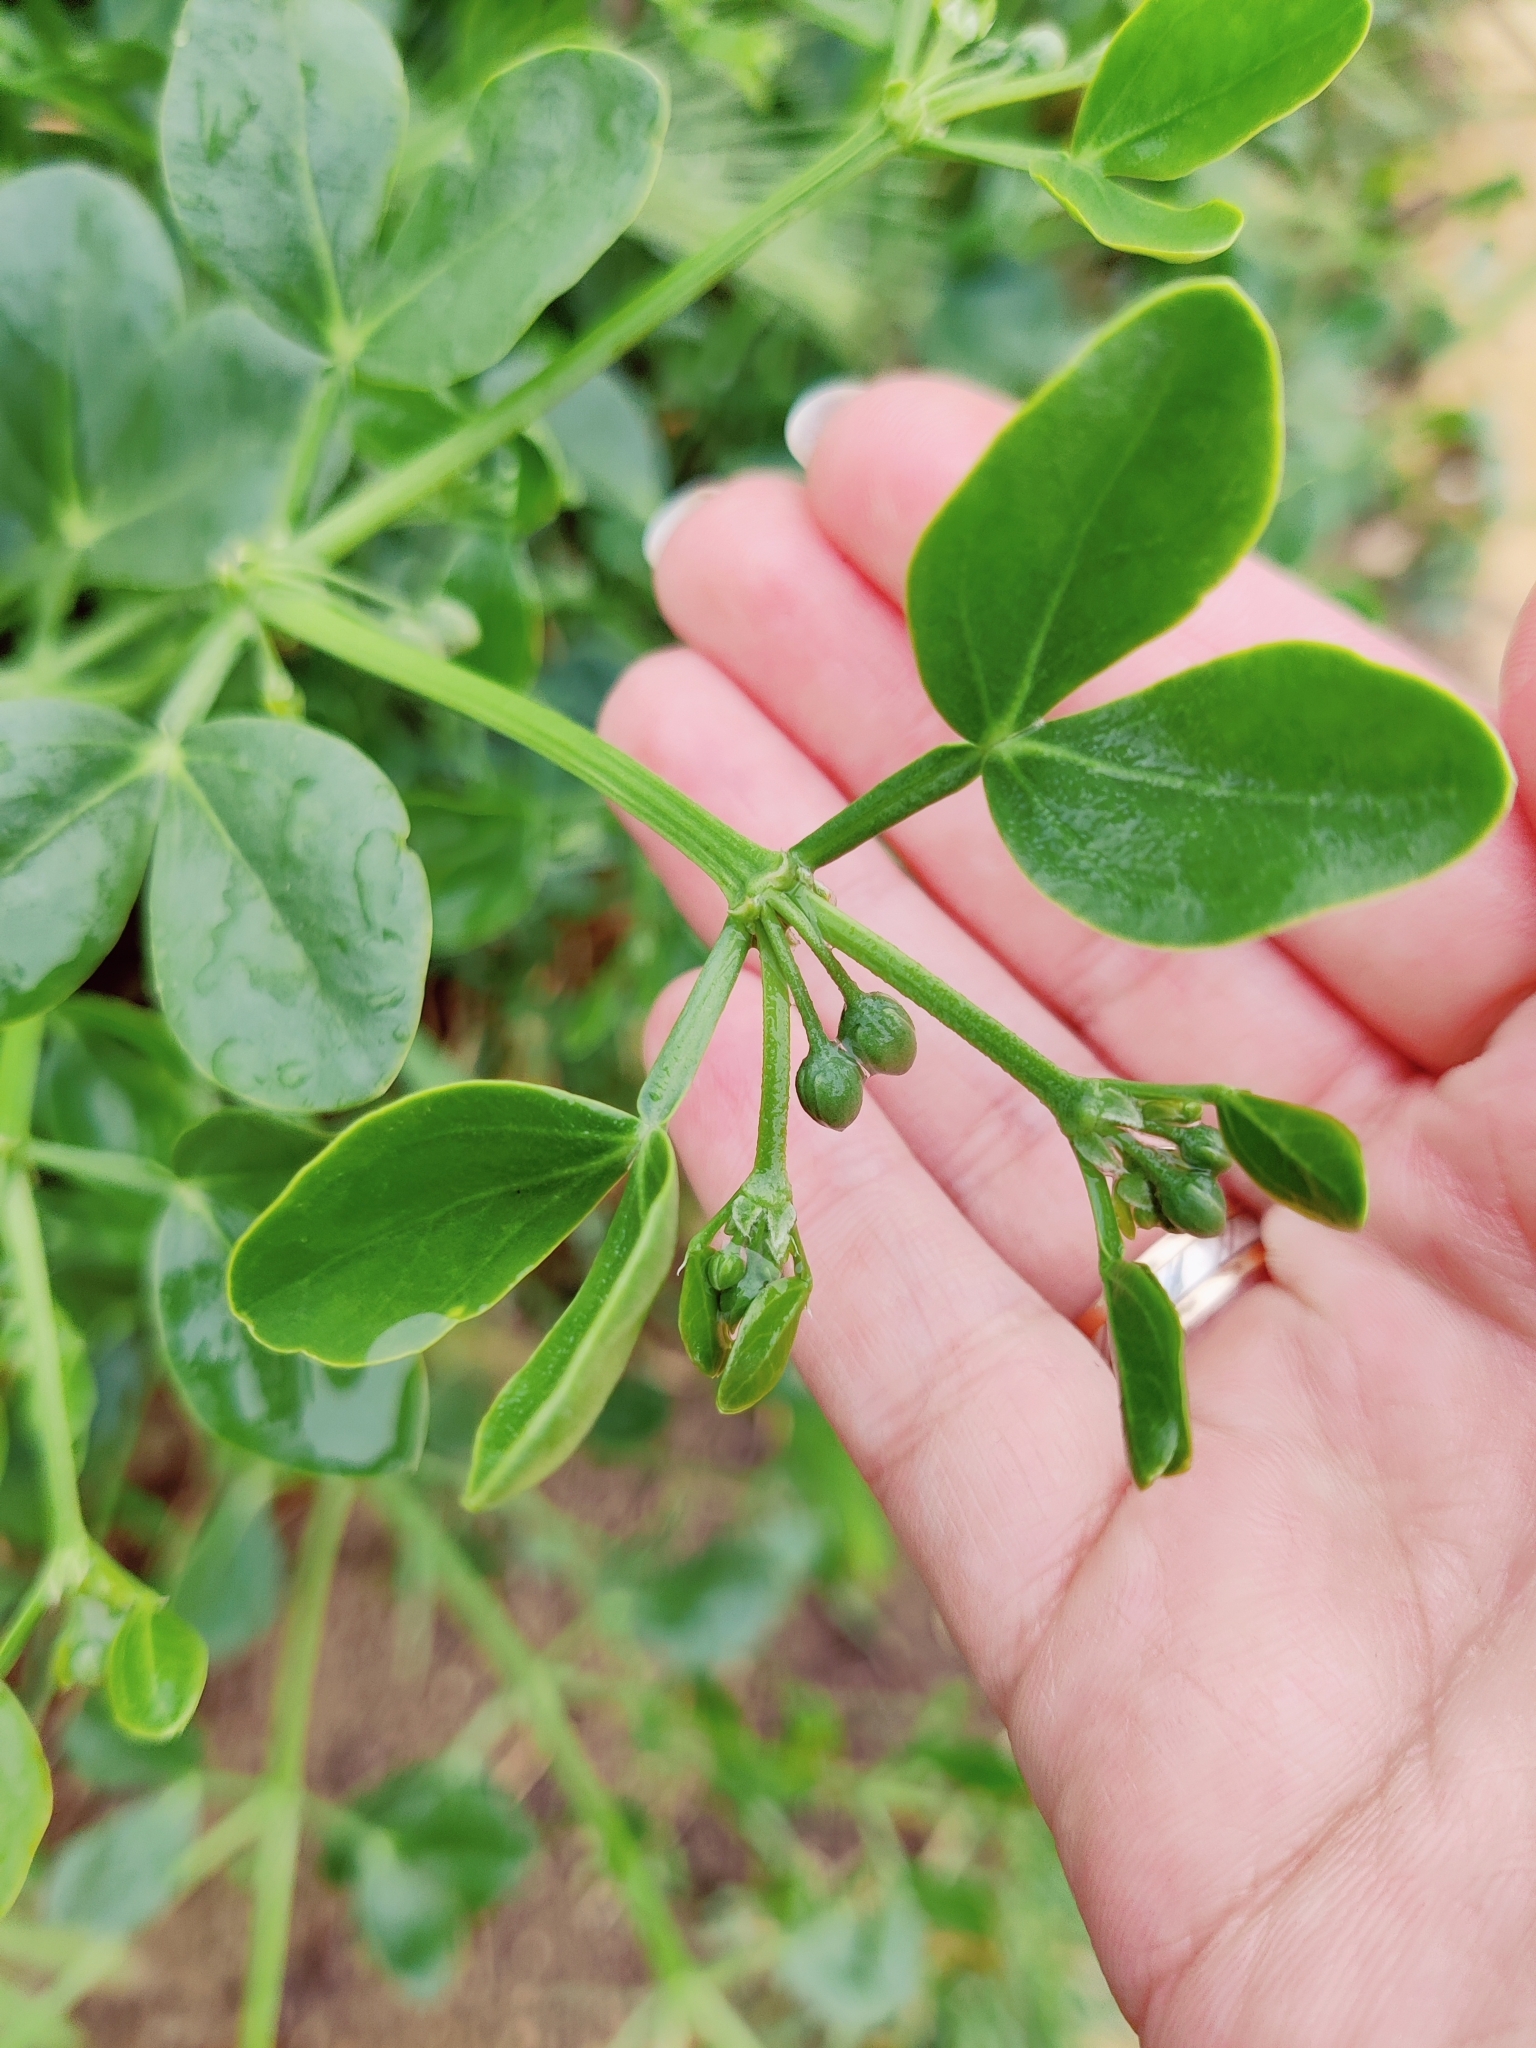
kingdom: Plantae
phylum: Tracheophyta
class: Magnoliopsida
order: Zygophyllales
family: Zygophyllaceae
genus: Zygophyllum
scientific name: Zygophyllum fabago
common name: Syrian beancaper
